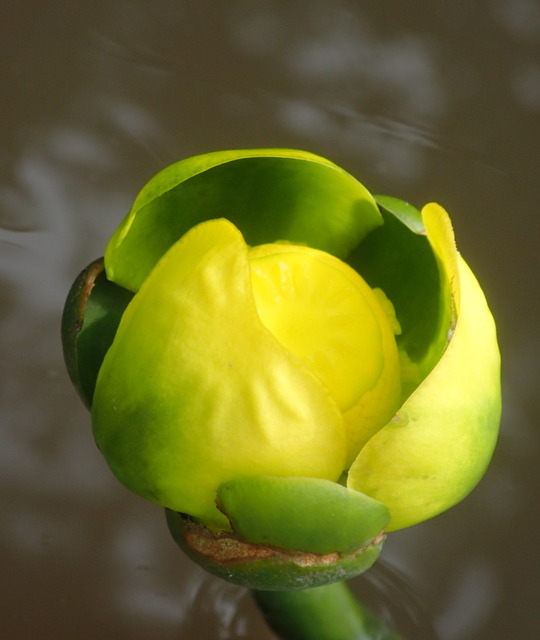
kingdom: Plantae
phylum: Tracheophyta
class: Magnoliopsida
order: Nymphaeales
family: Nymphaeaceae
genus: Nuphar
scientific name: Nuphar advena
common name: Spatter-dock
